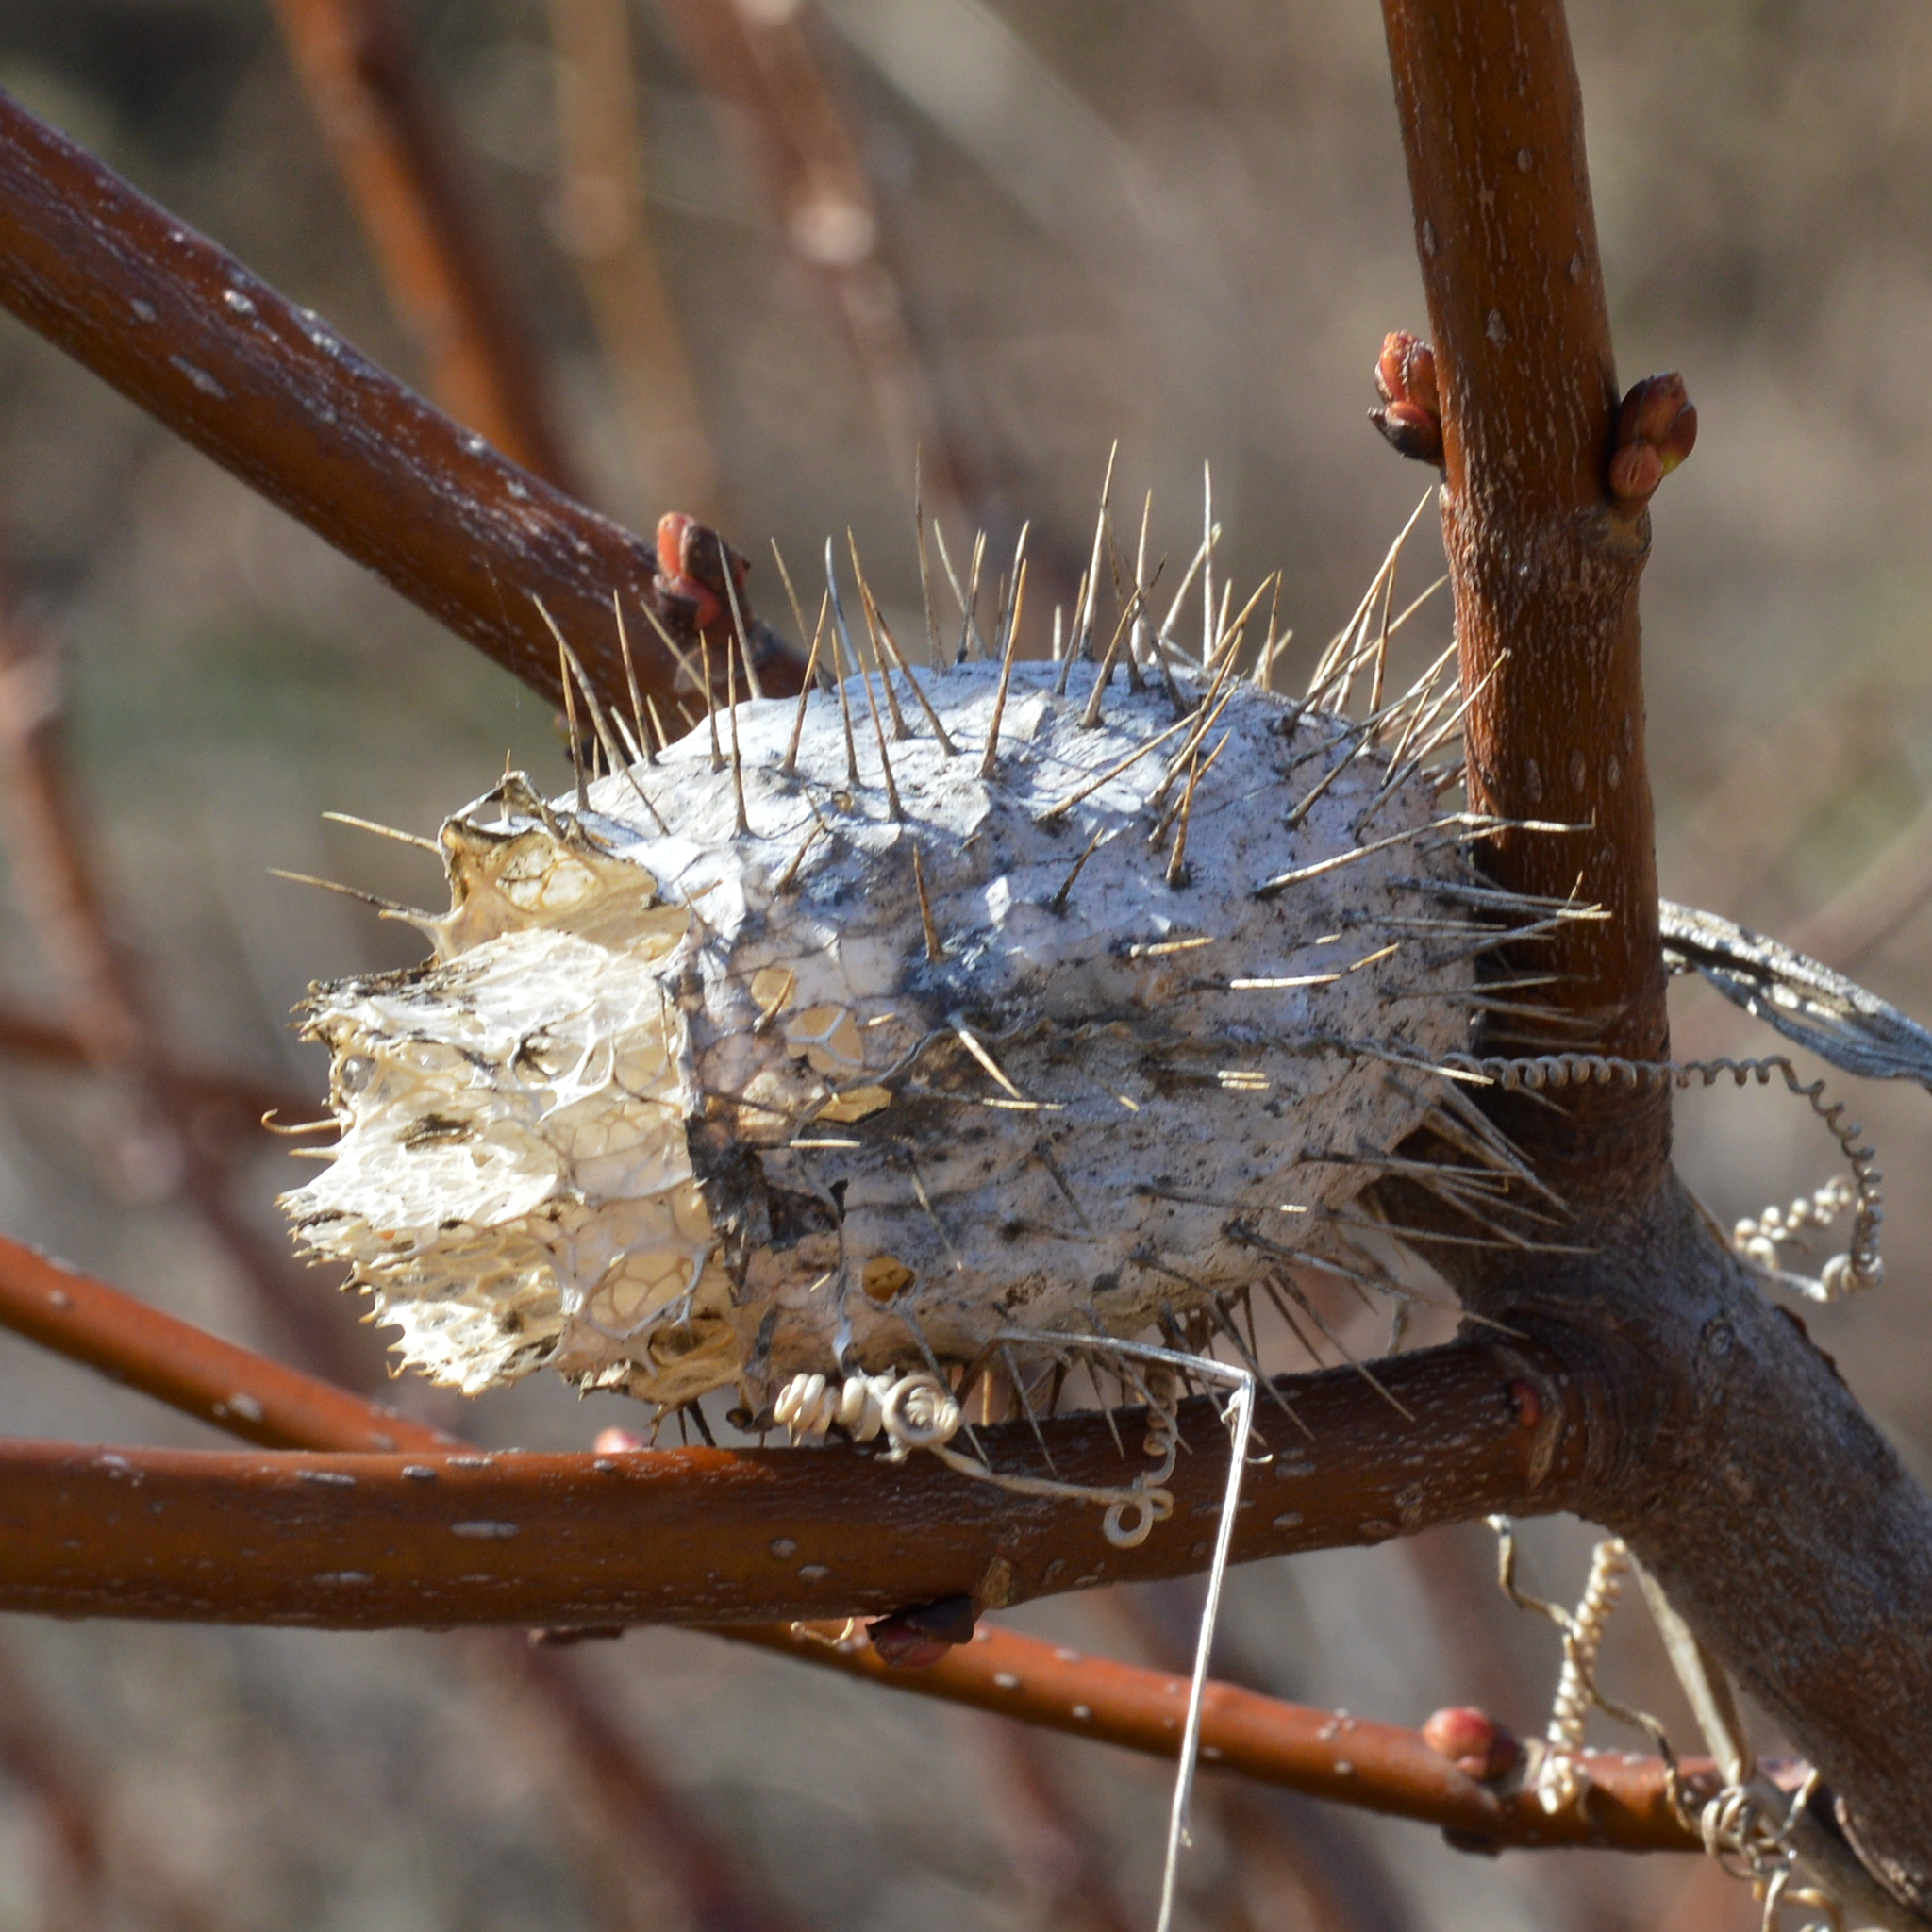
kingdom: Plantae
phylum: Tracheophyta
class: Magnoliopsida
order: Cucurbitales
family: Cucurbitaceae
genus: Echinocystis
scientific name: Echinocystis lobata
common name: Wild cucumber
